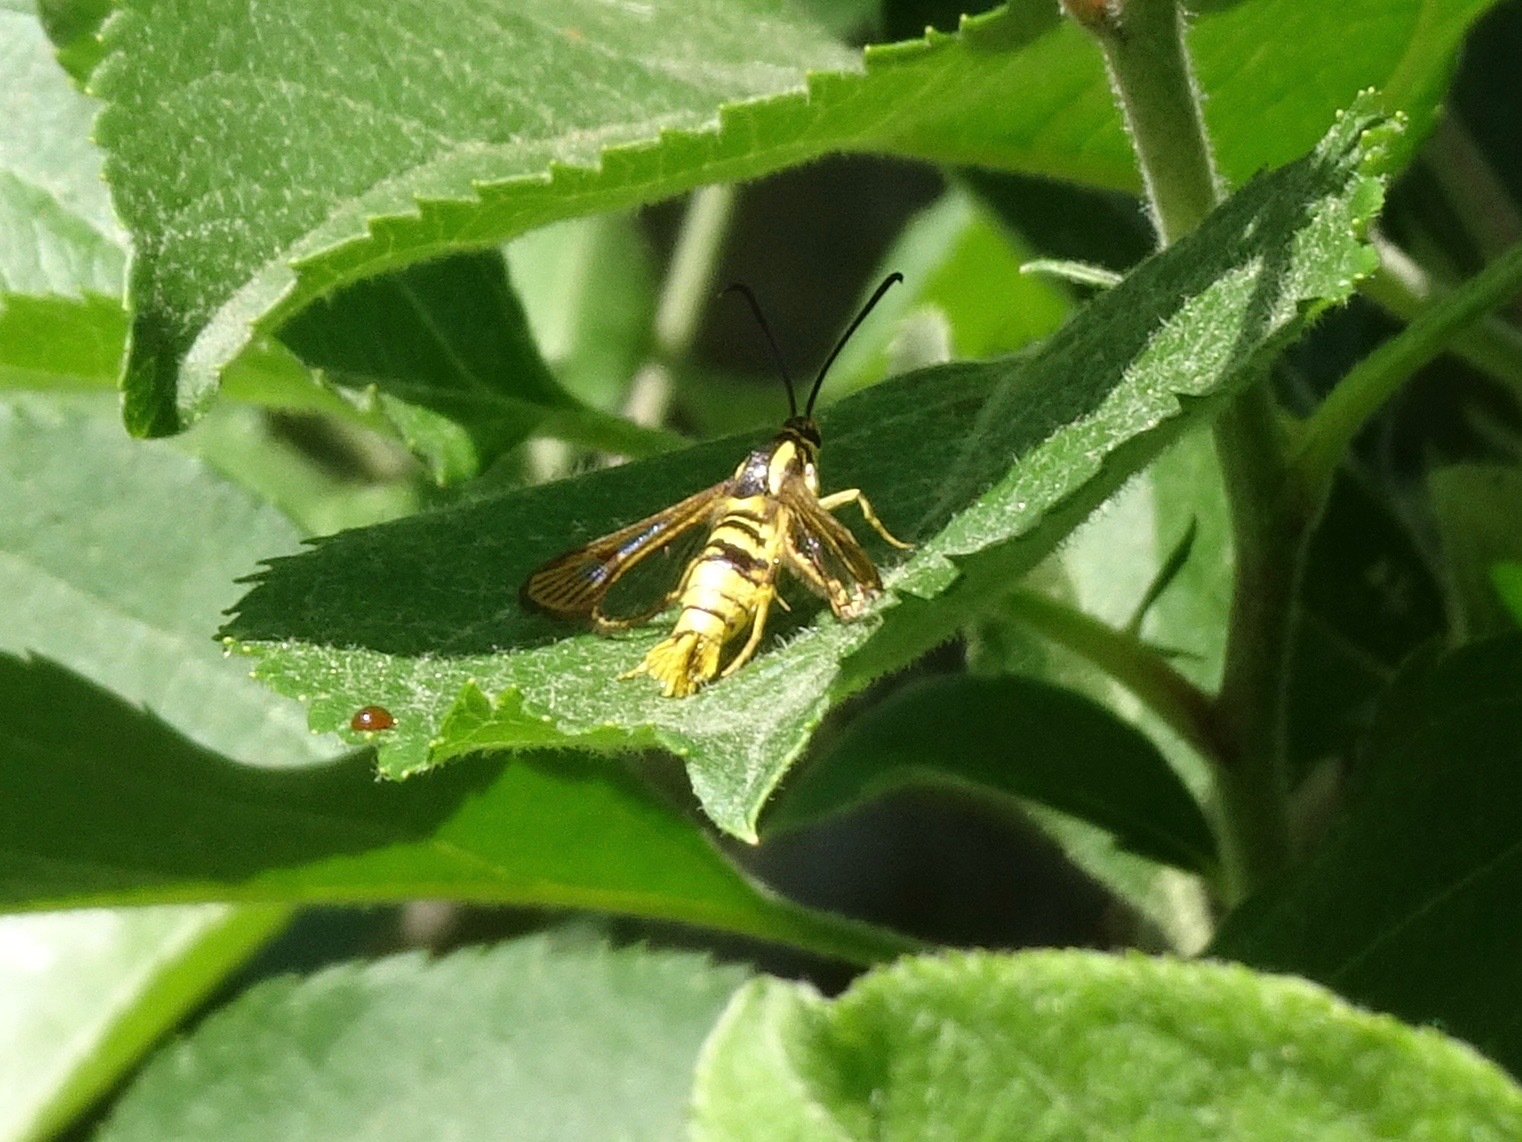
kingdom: Animalia
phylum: Arthropoda
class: Insecta
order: Lepidoptera
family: Sesiidae
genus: Synanthedon
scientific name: Synanthedon resplendens
